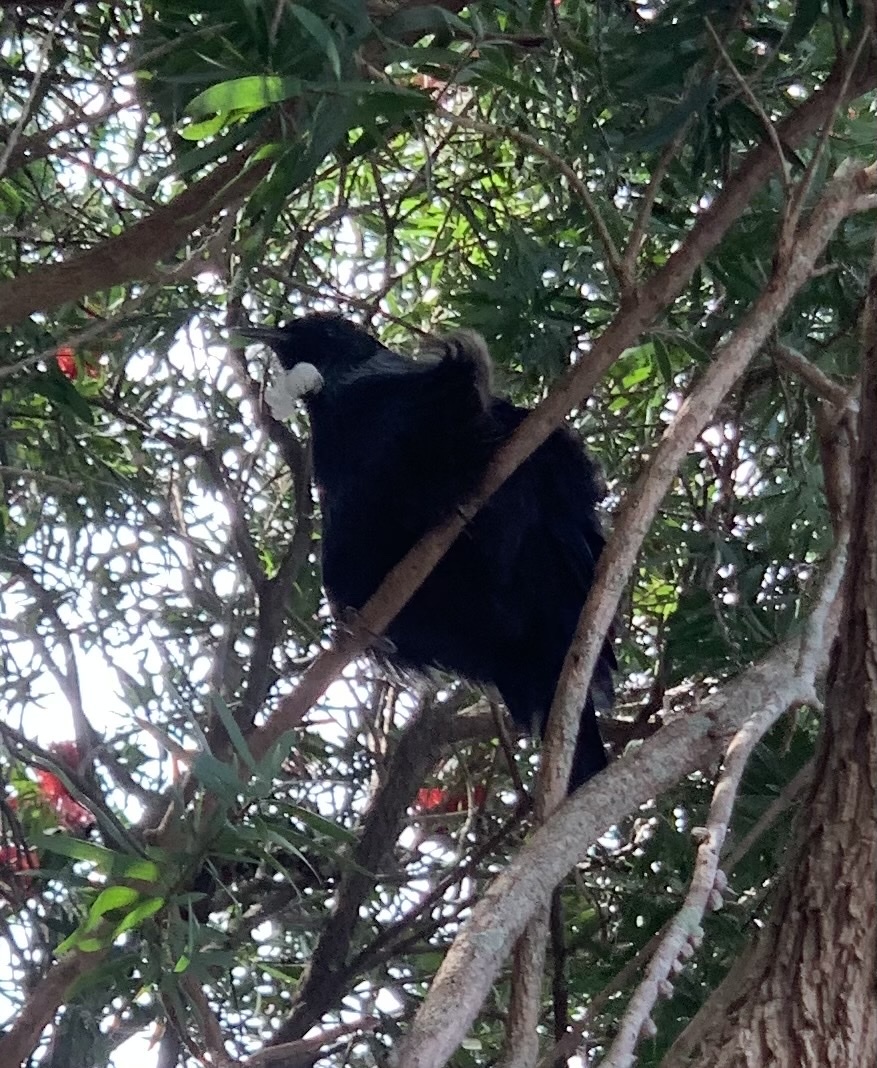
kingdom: Animalia
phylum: Chordata
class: Aves
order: Passeriformes
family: Meliphagidae
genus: Prosthemadera
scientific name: Prosthemadera novaeseelandiae
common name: Tui
